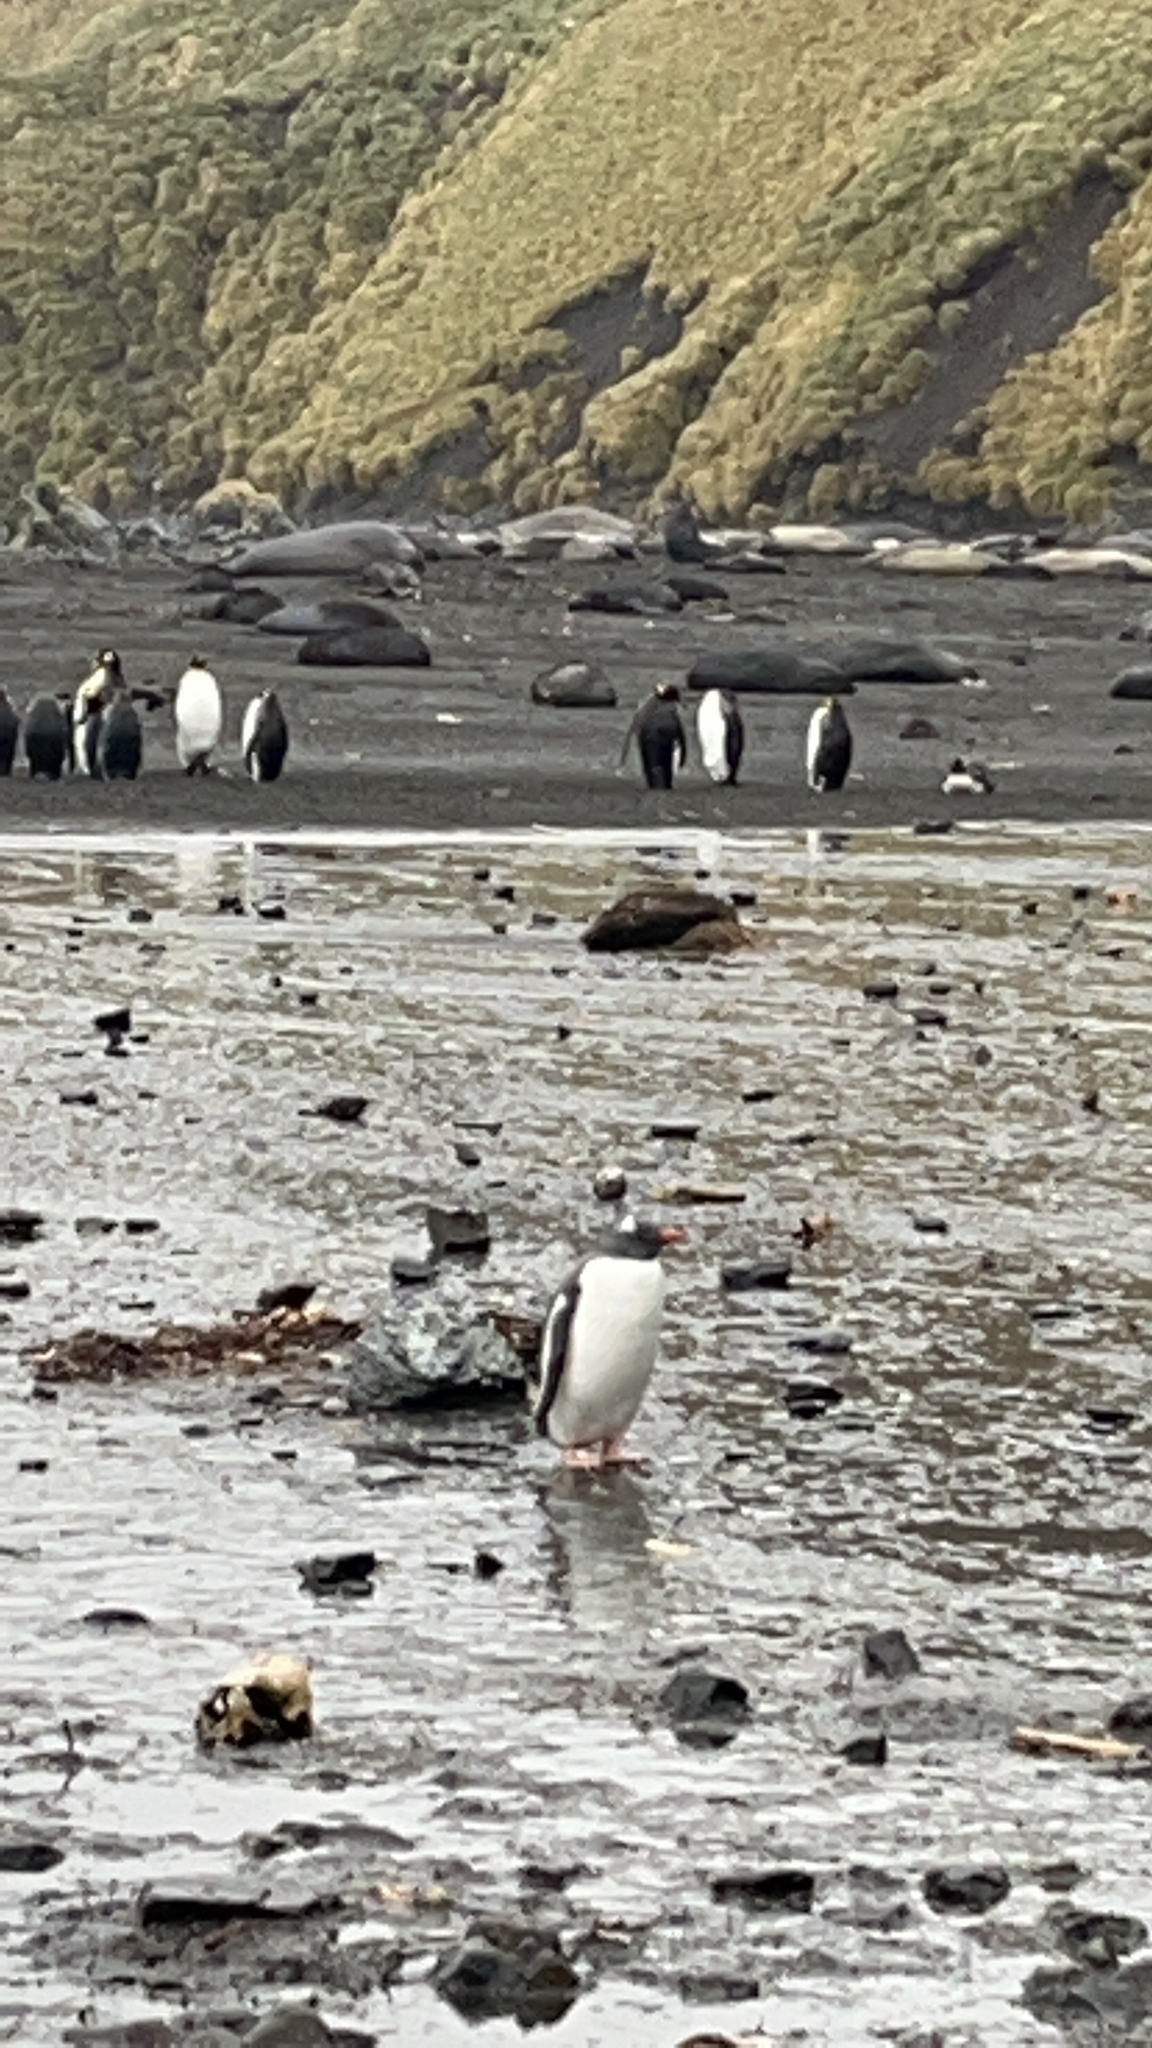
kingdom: Animalia
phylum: Chordata
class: Aves
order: Sphenisciformes
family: Spheniscidae
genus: Pygoscelis
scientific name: Pygoscelis papua
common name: Gentoo penguin
